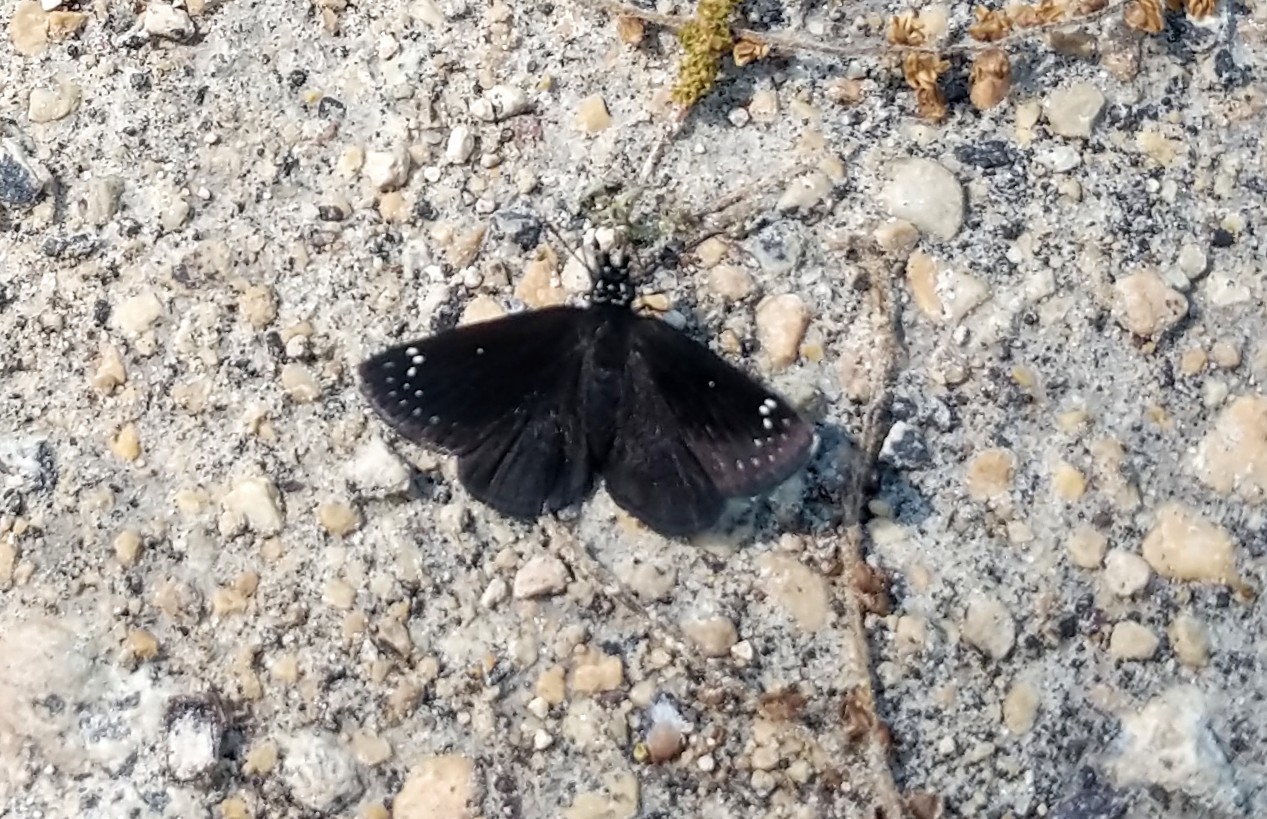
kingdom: Animalia
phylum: Arthropoda
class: Insecta
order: Lepidoptera
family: Hesperiidae
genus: Pholisora
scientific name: Pholisora catullus
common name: Common sootywing
